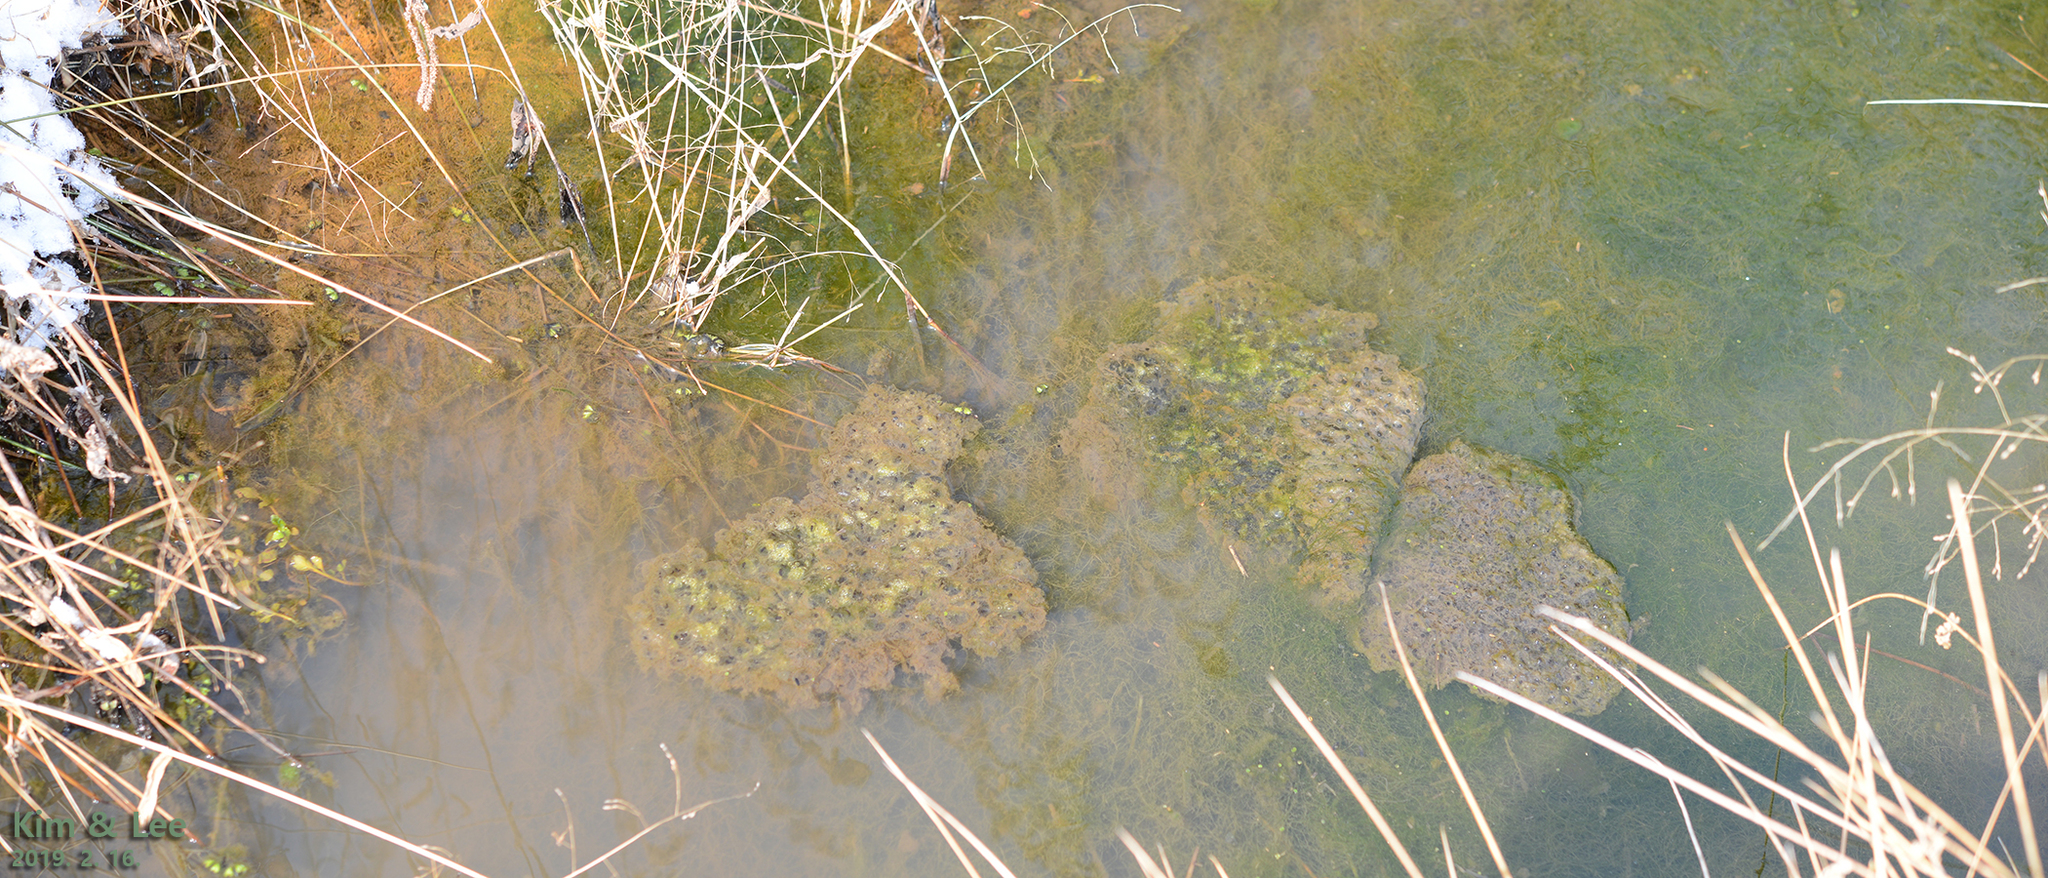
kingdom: Animalia
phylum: Chordata
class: Amphibia
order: Anura
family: Ranidae
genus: Rana
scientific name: Rana uenoi
